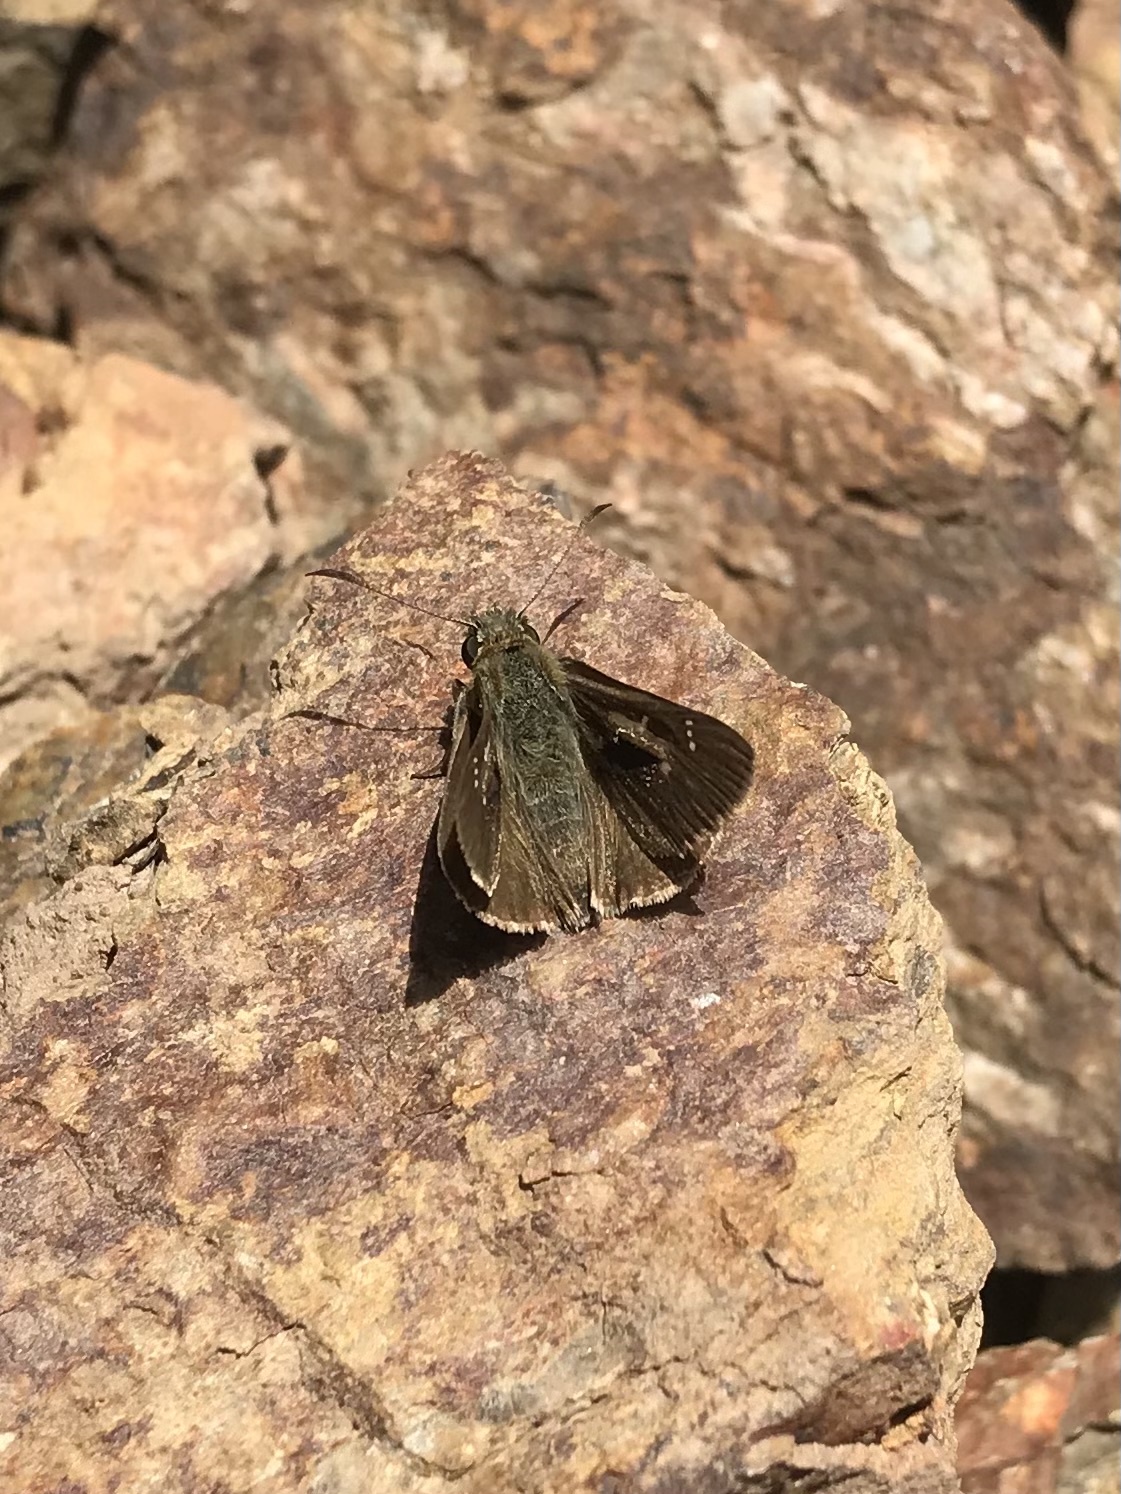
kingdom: Animalia
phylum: Arthropoda
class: Insecta
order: Lepidoptera
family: Hesperiidae
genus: Toxidia
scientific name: Toxidia
